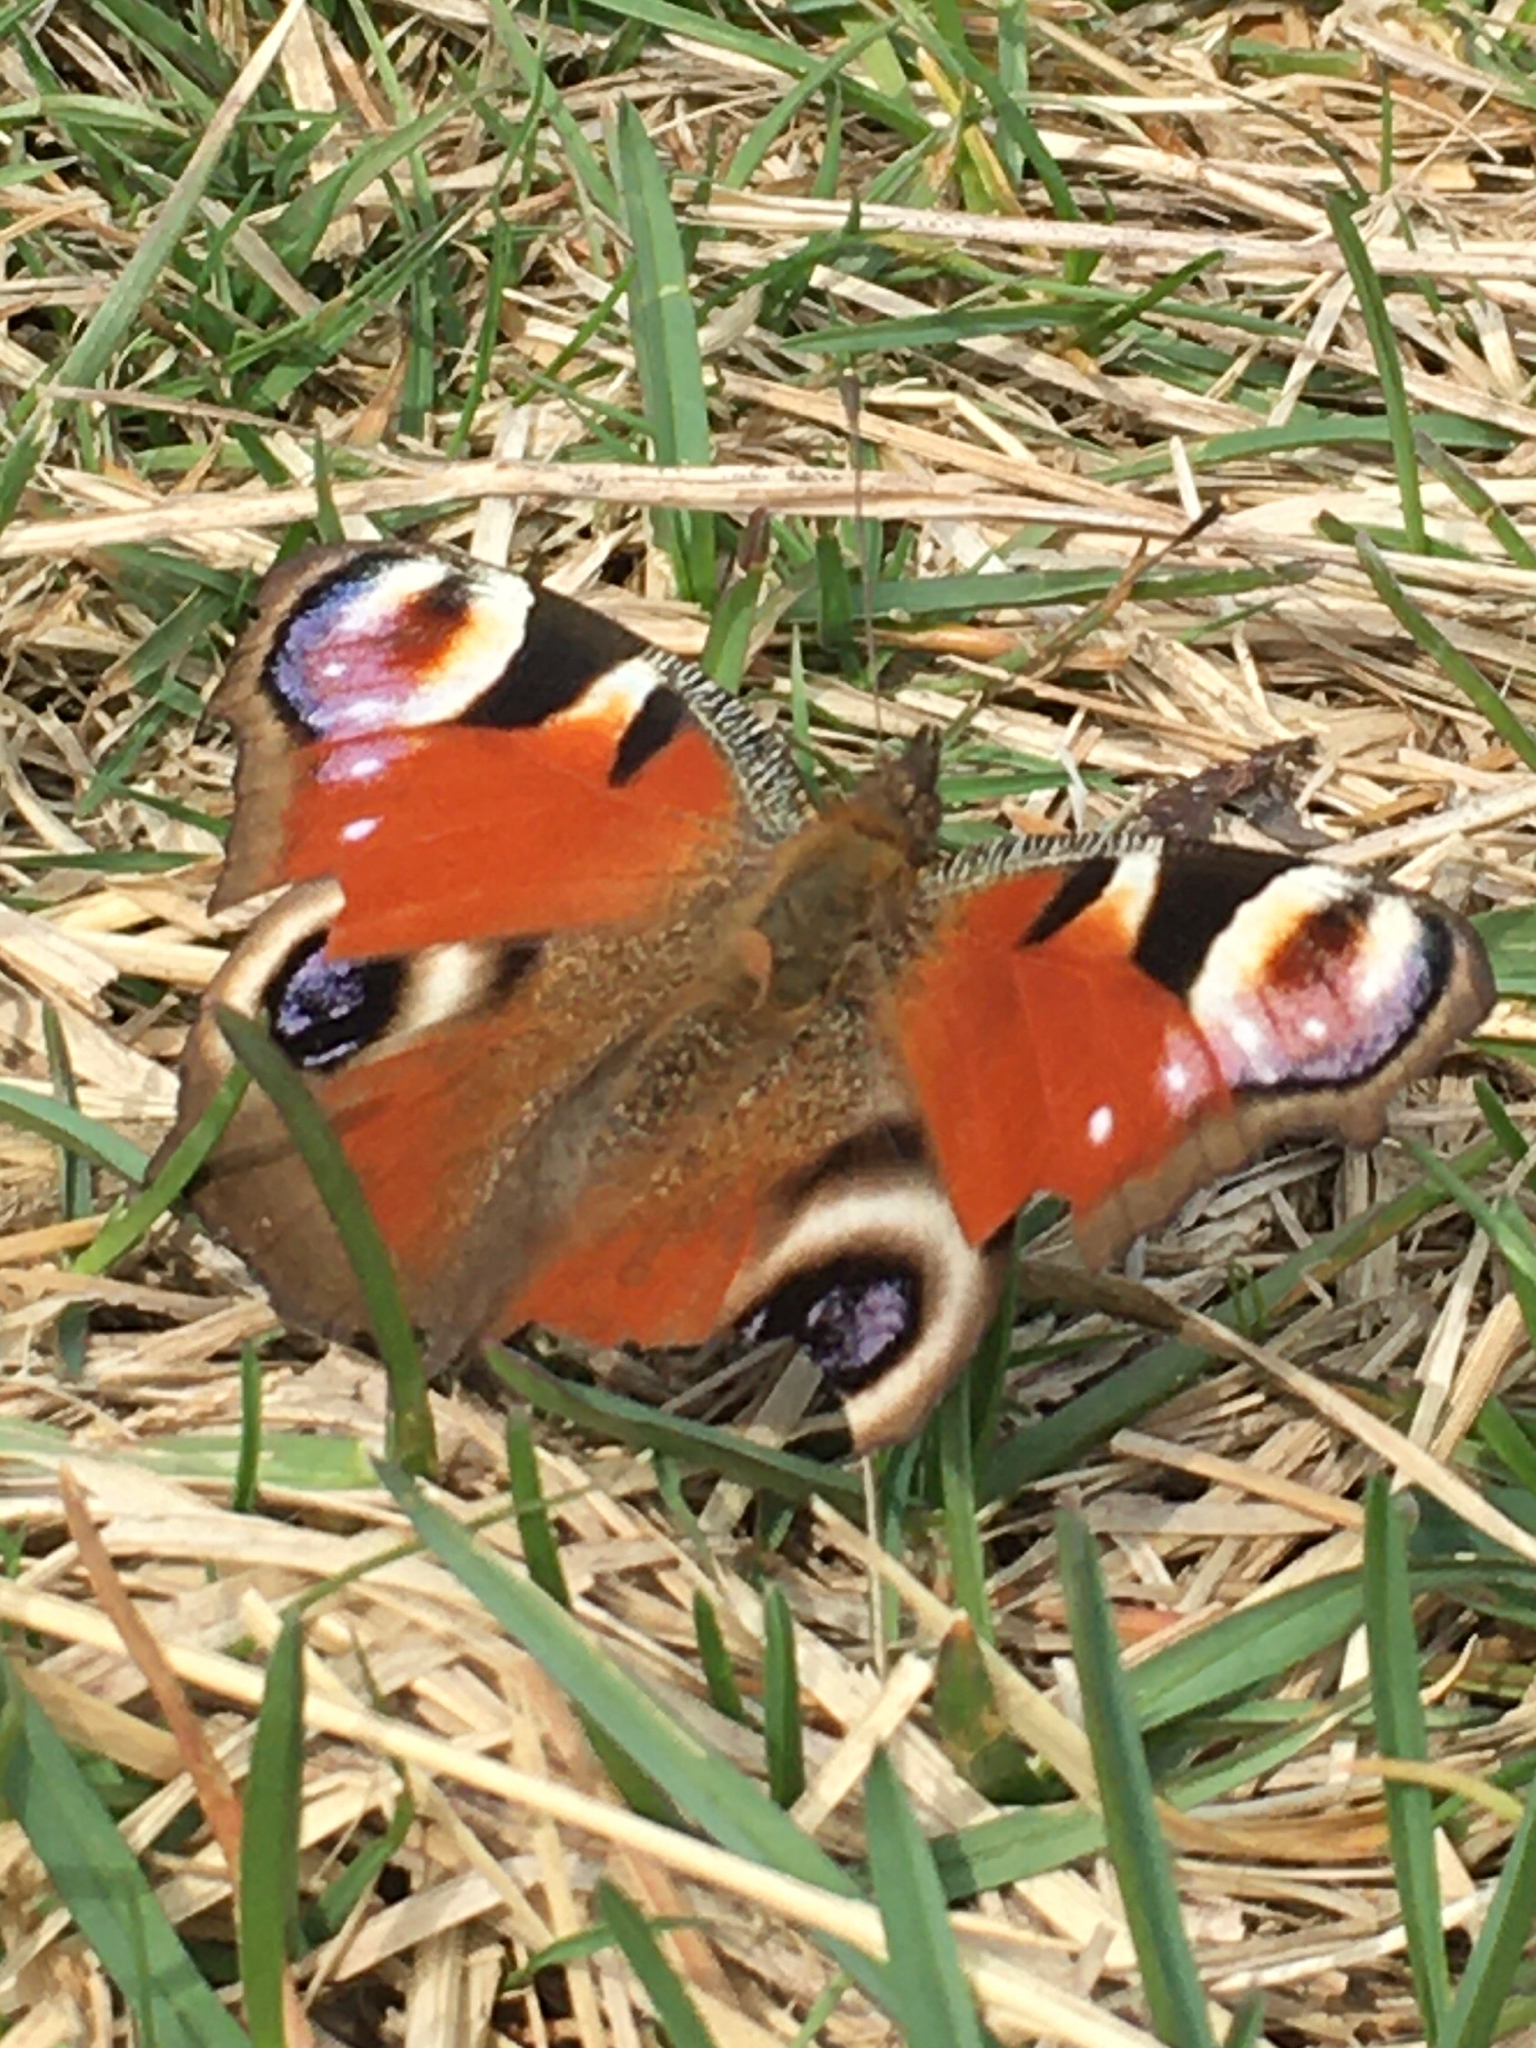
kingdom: Animalia
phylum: Arthropoda
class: Insecta
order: Lepidoptera
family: Nymphalidae
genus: Aglais
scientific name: Aglais io
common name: Peacock
